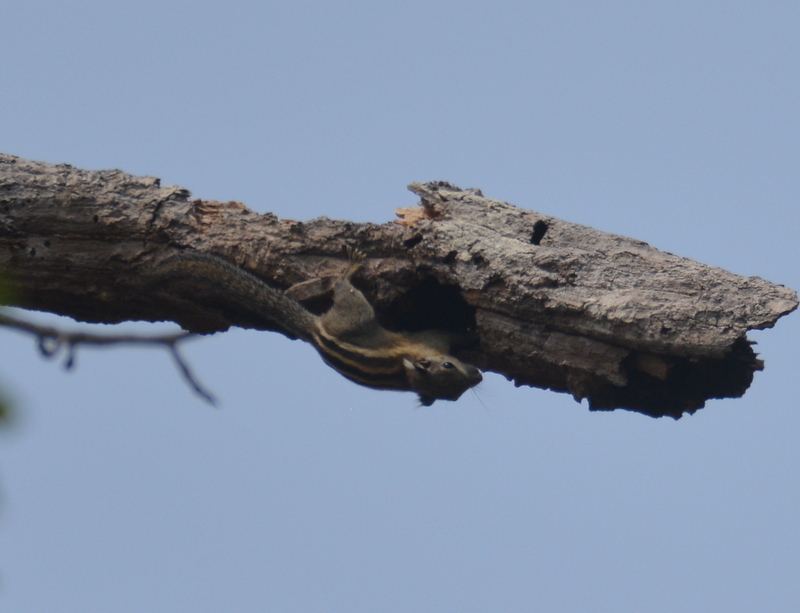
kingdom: Animalia
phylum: Chordata
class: Mammalia
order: Rodentia
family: Sciuridae
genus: Tamiops
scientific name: Tamiops rodolphii
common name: Cambodian striped squirrel
